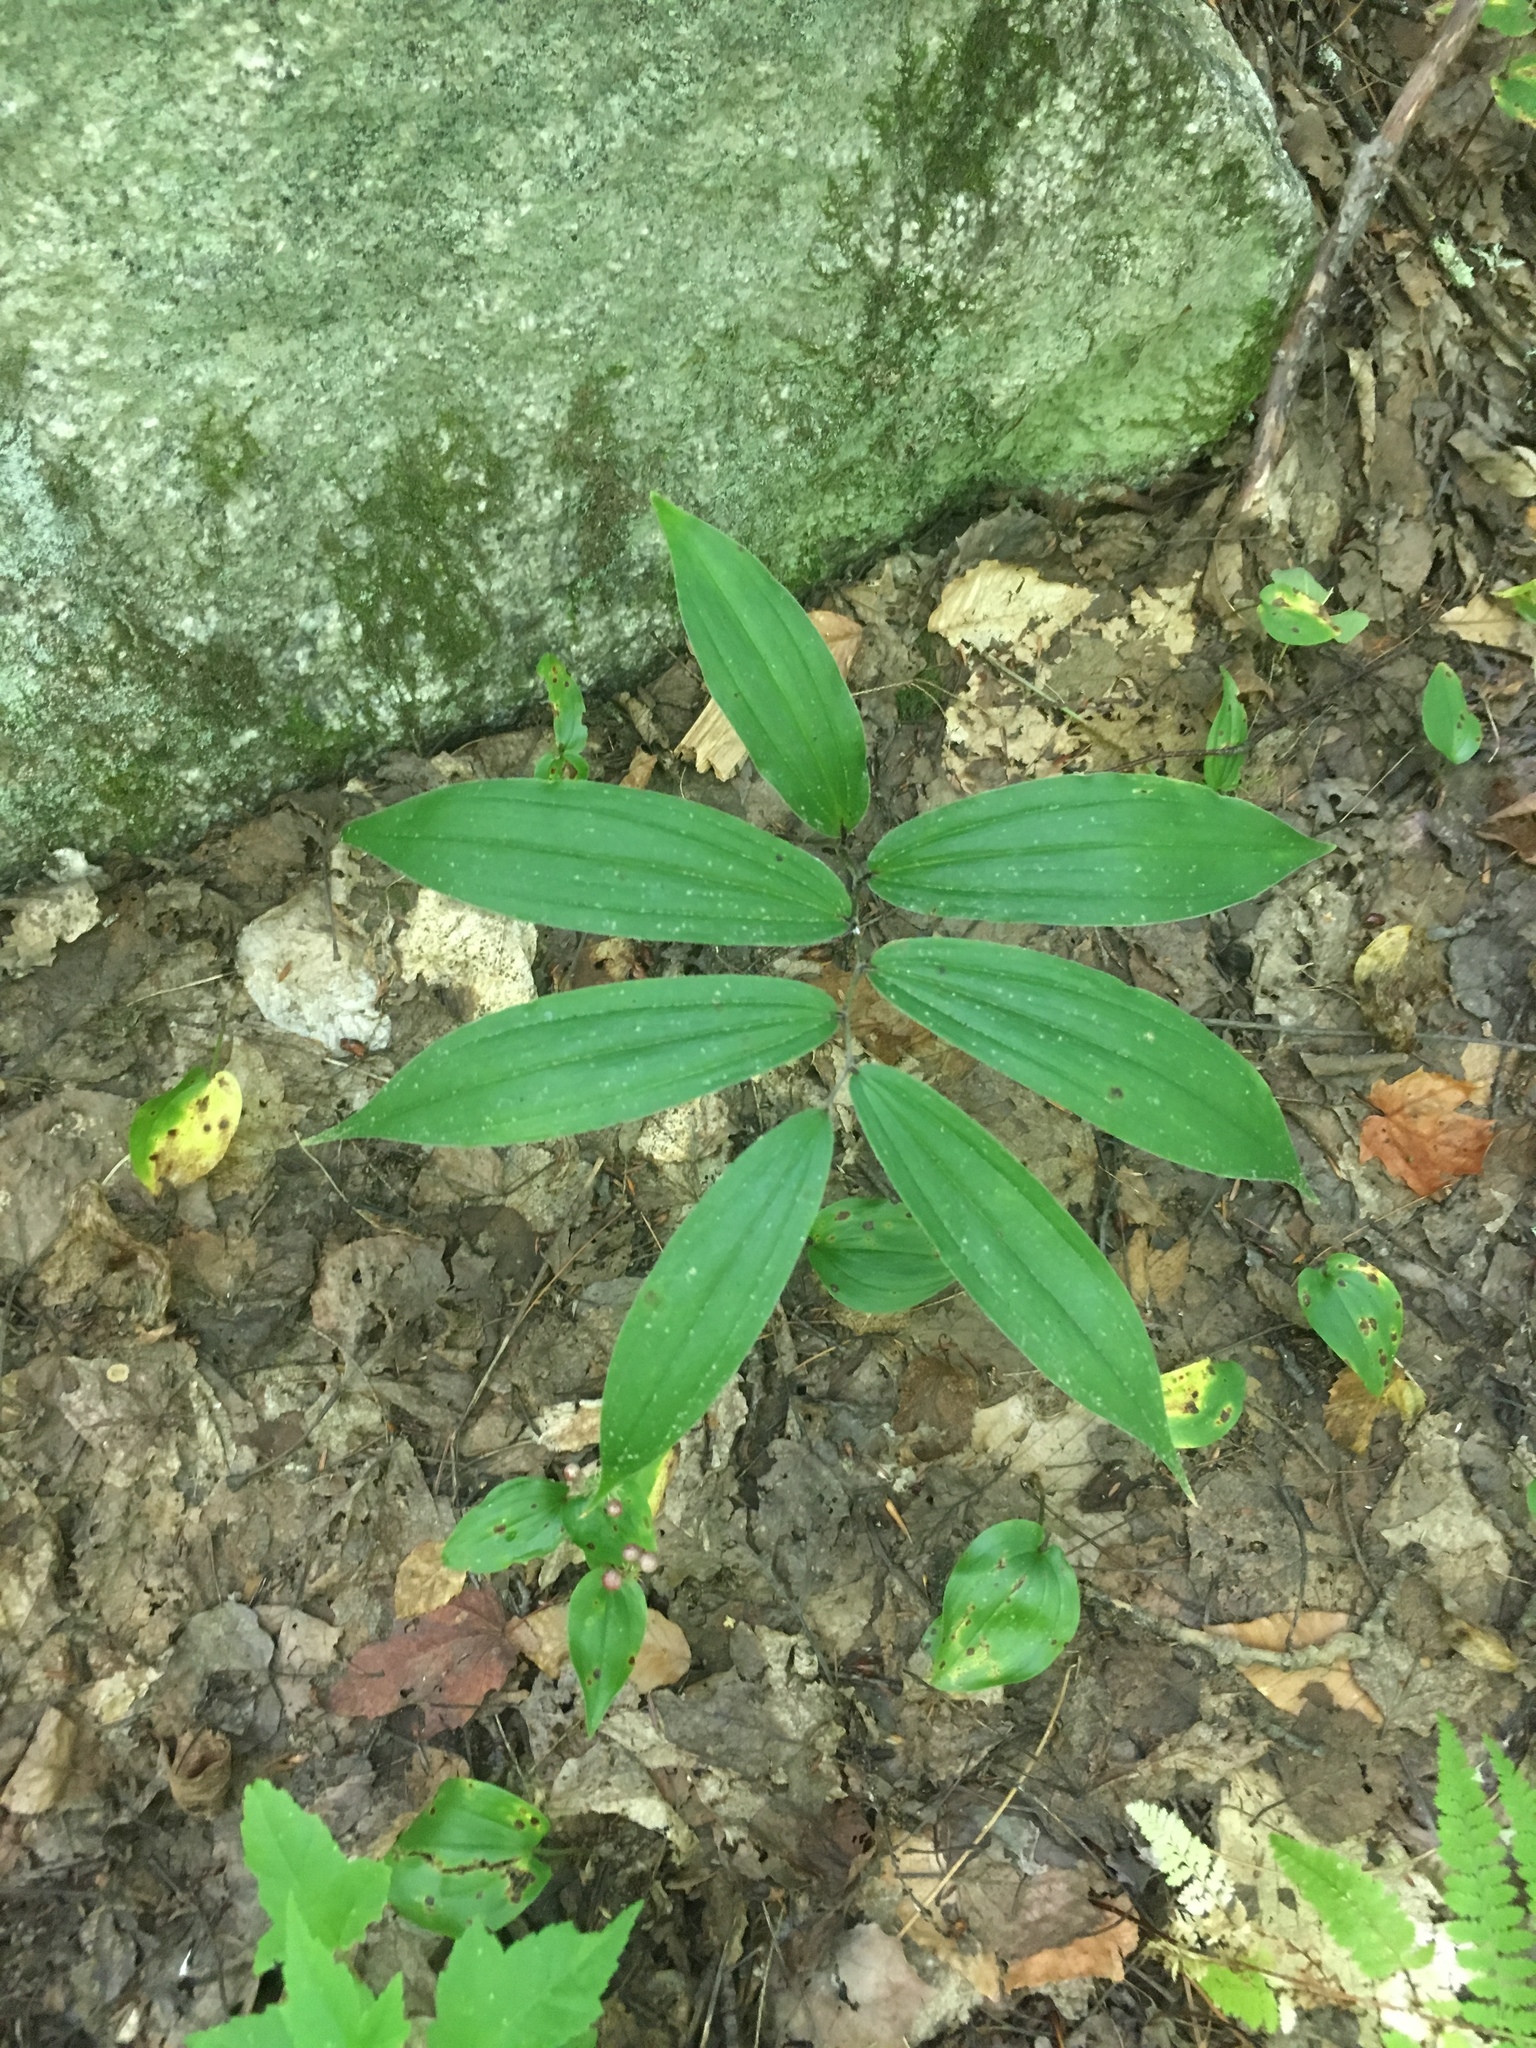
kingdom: Plantae
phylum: Tracheophyta
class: Liliopsida
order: Asparagales
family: Asparagaceae
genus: Maianthemum
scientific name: Maianthemum racemosum
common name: False spikenard
